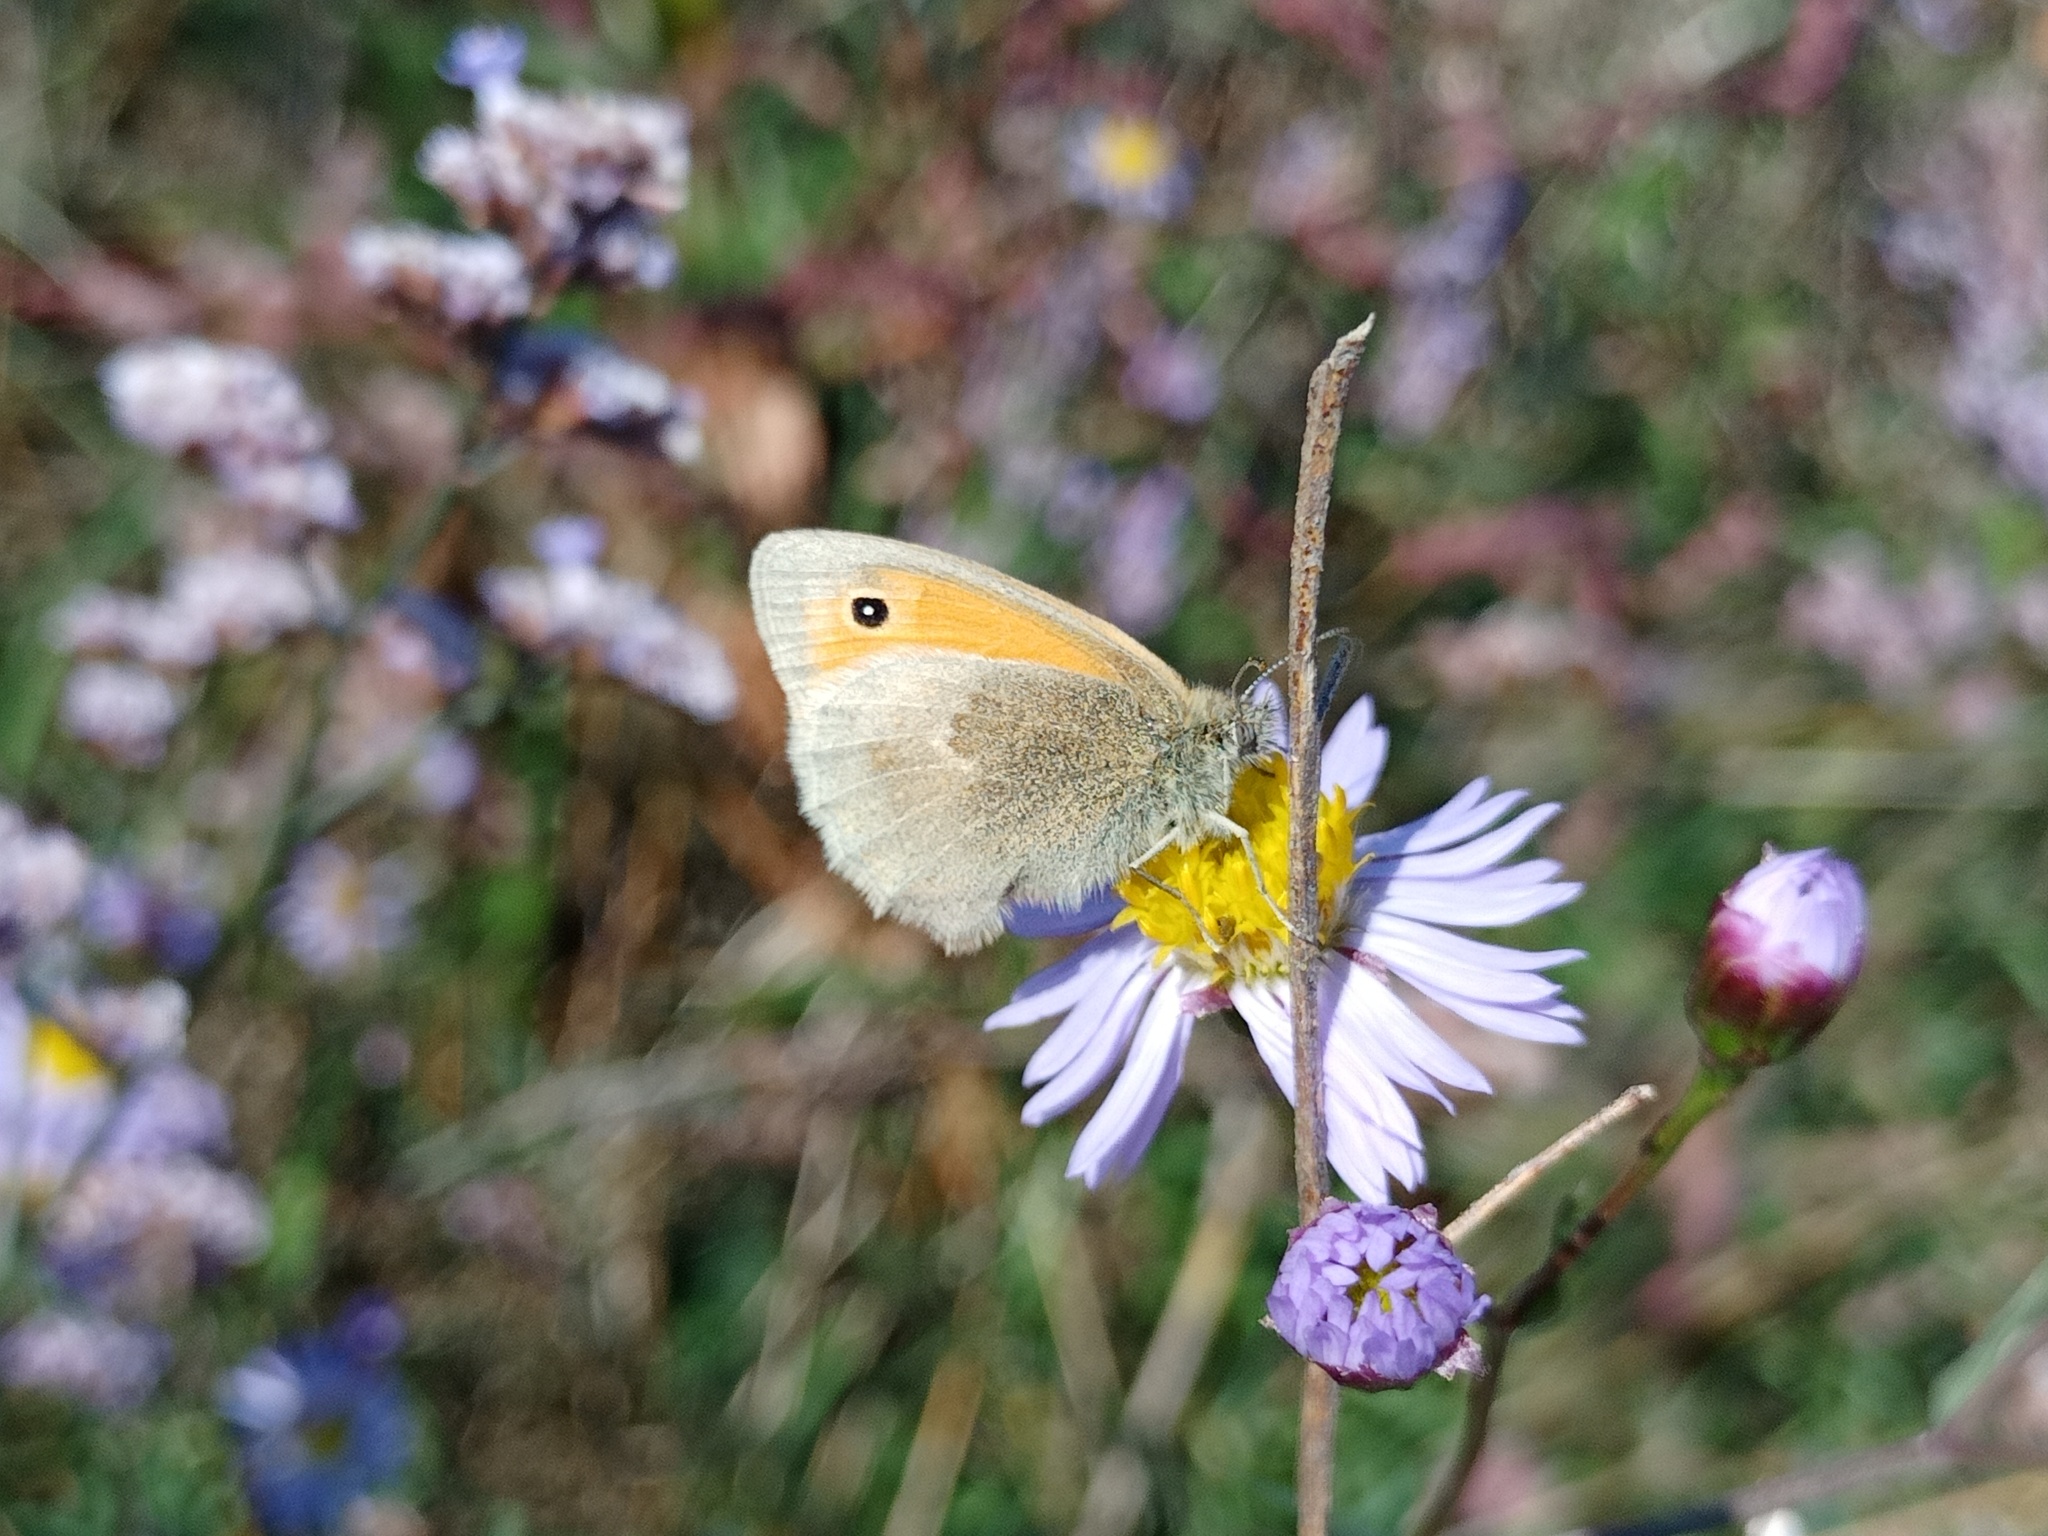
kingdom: Animalia
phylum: Arthropoda
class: Insecta
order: Lepidoptera
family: Nymphalidae
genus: Coenonympha
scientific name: Coenonympha pamphilus
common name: Small heath
